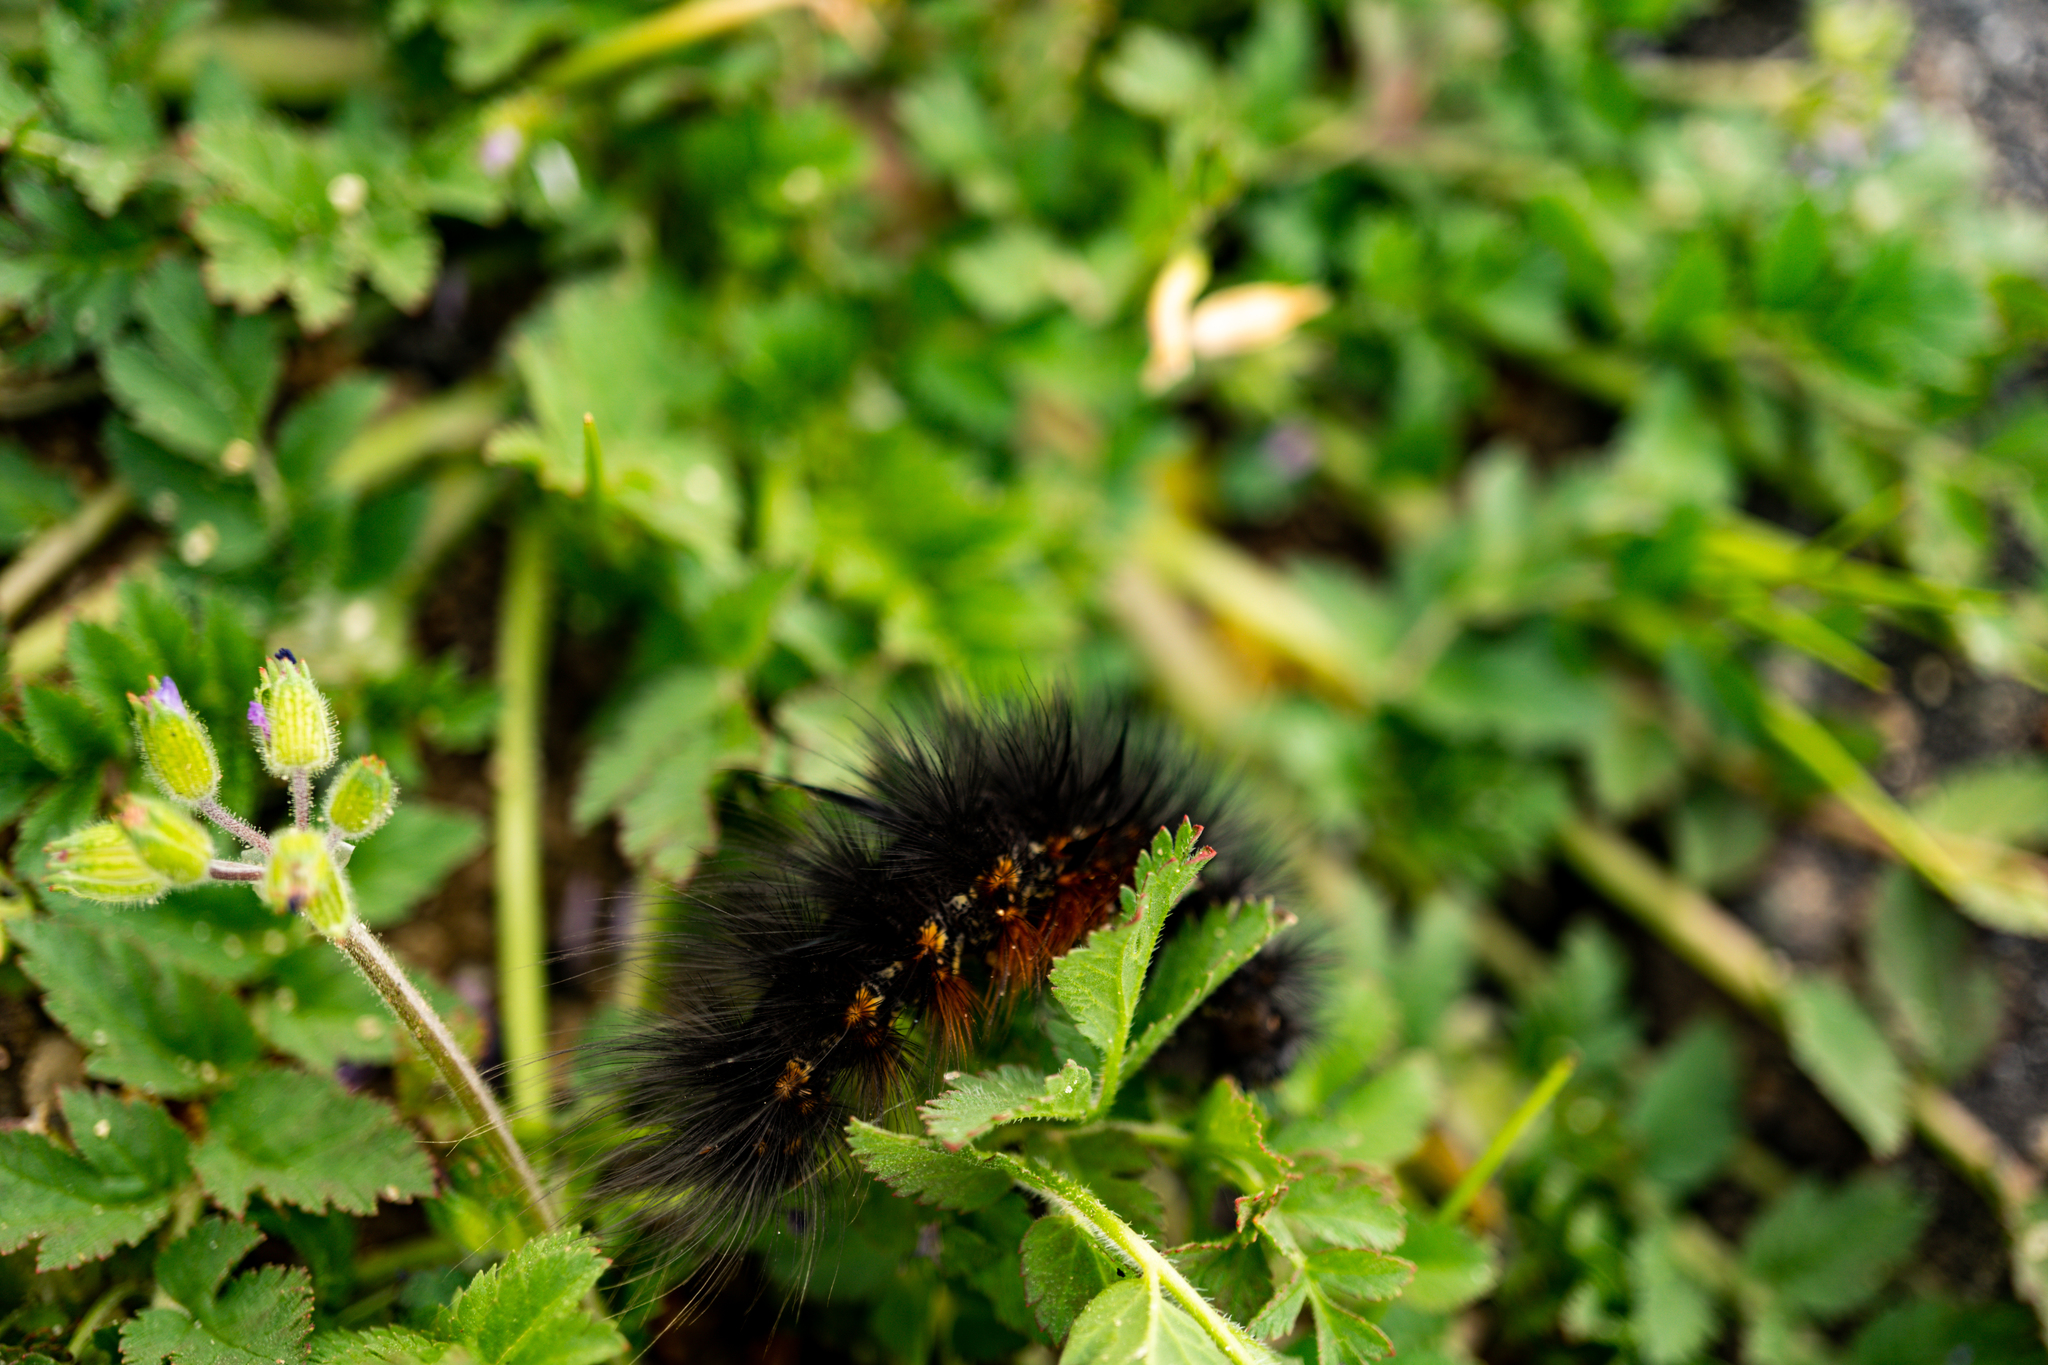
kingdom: Animalia
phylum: Arthropoda
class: Insecta
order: Lepidoptera
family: Erebidae
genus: Estigmene
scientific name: Estigmene acrea
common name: Salt marsh moth
